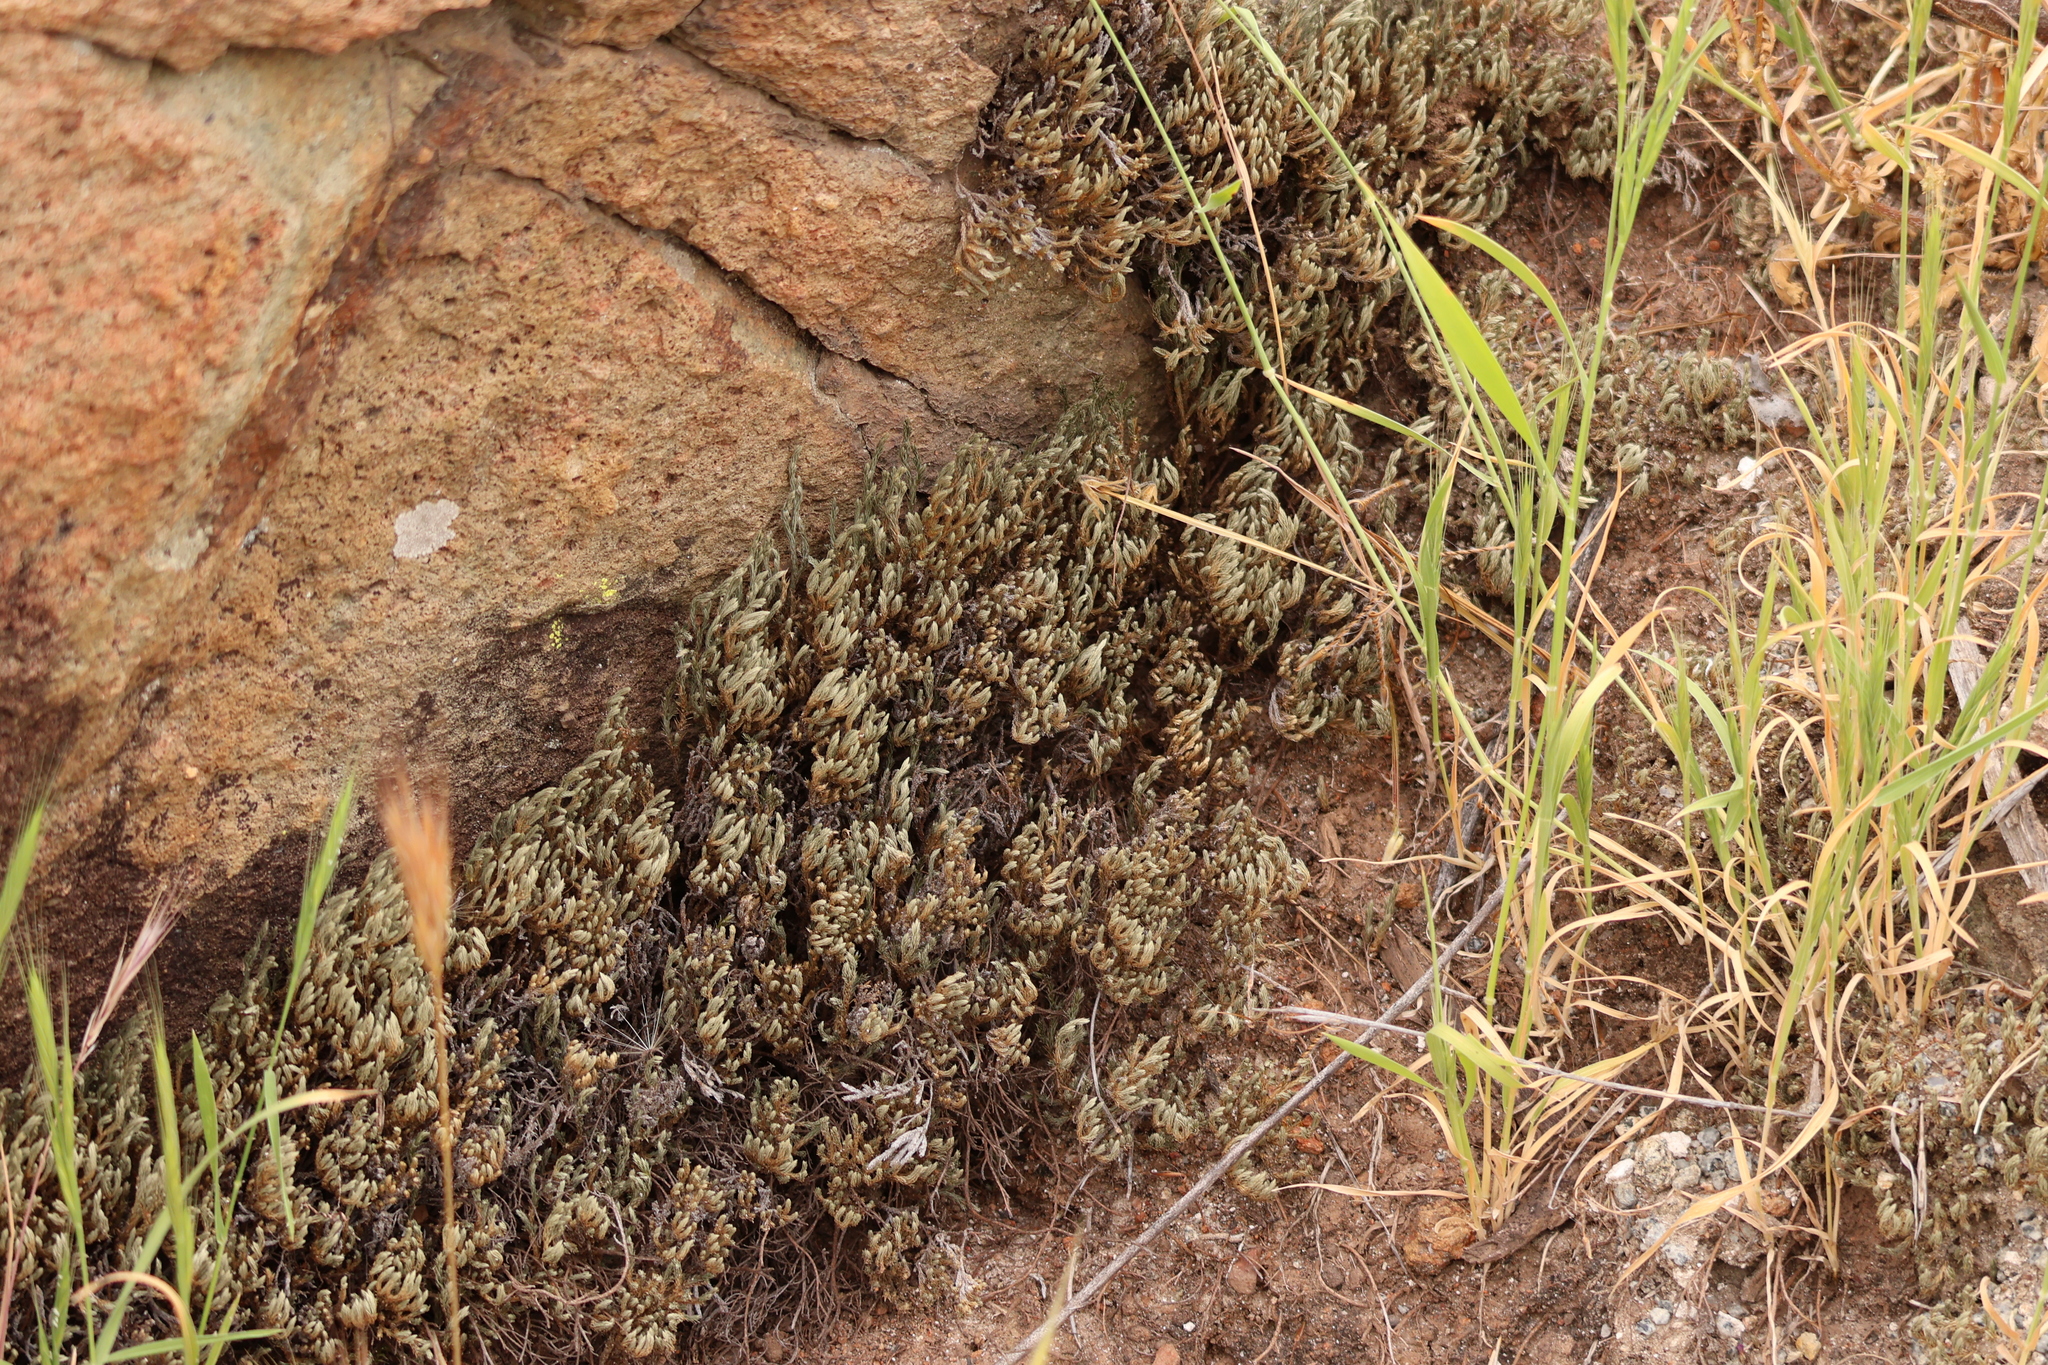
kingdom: Plantae
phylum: Tracheophyta
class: Lycopodiopsida
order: Selaginellales
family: Selaginellaceae
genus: Selaginella
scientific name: Selaginella bigelovii
